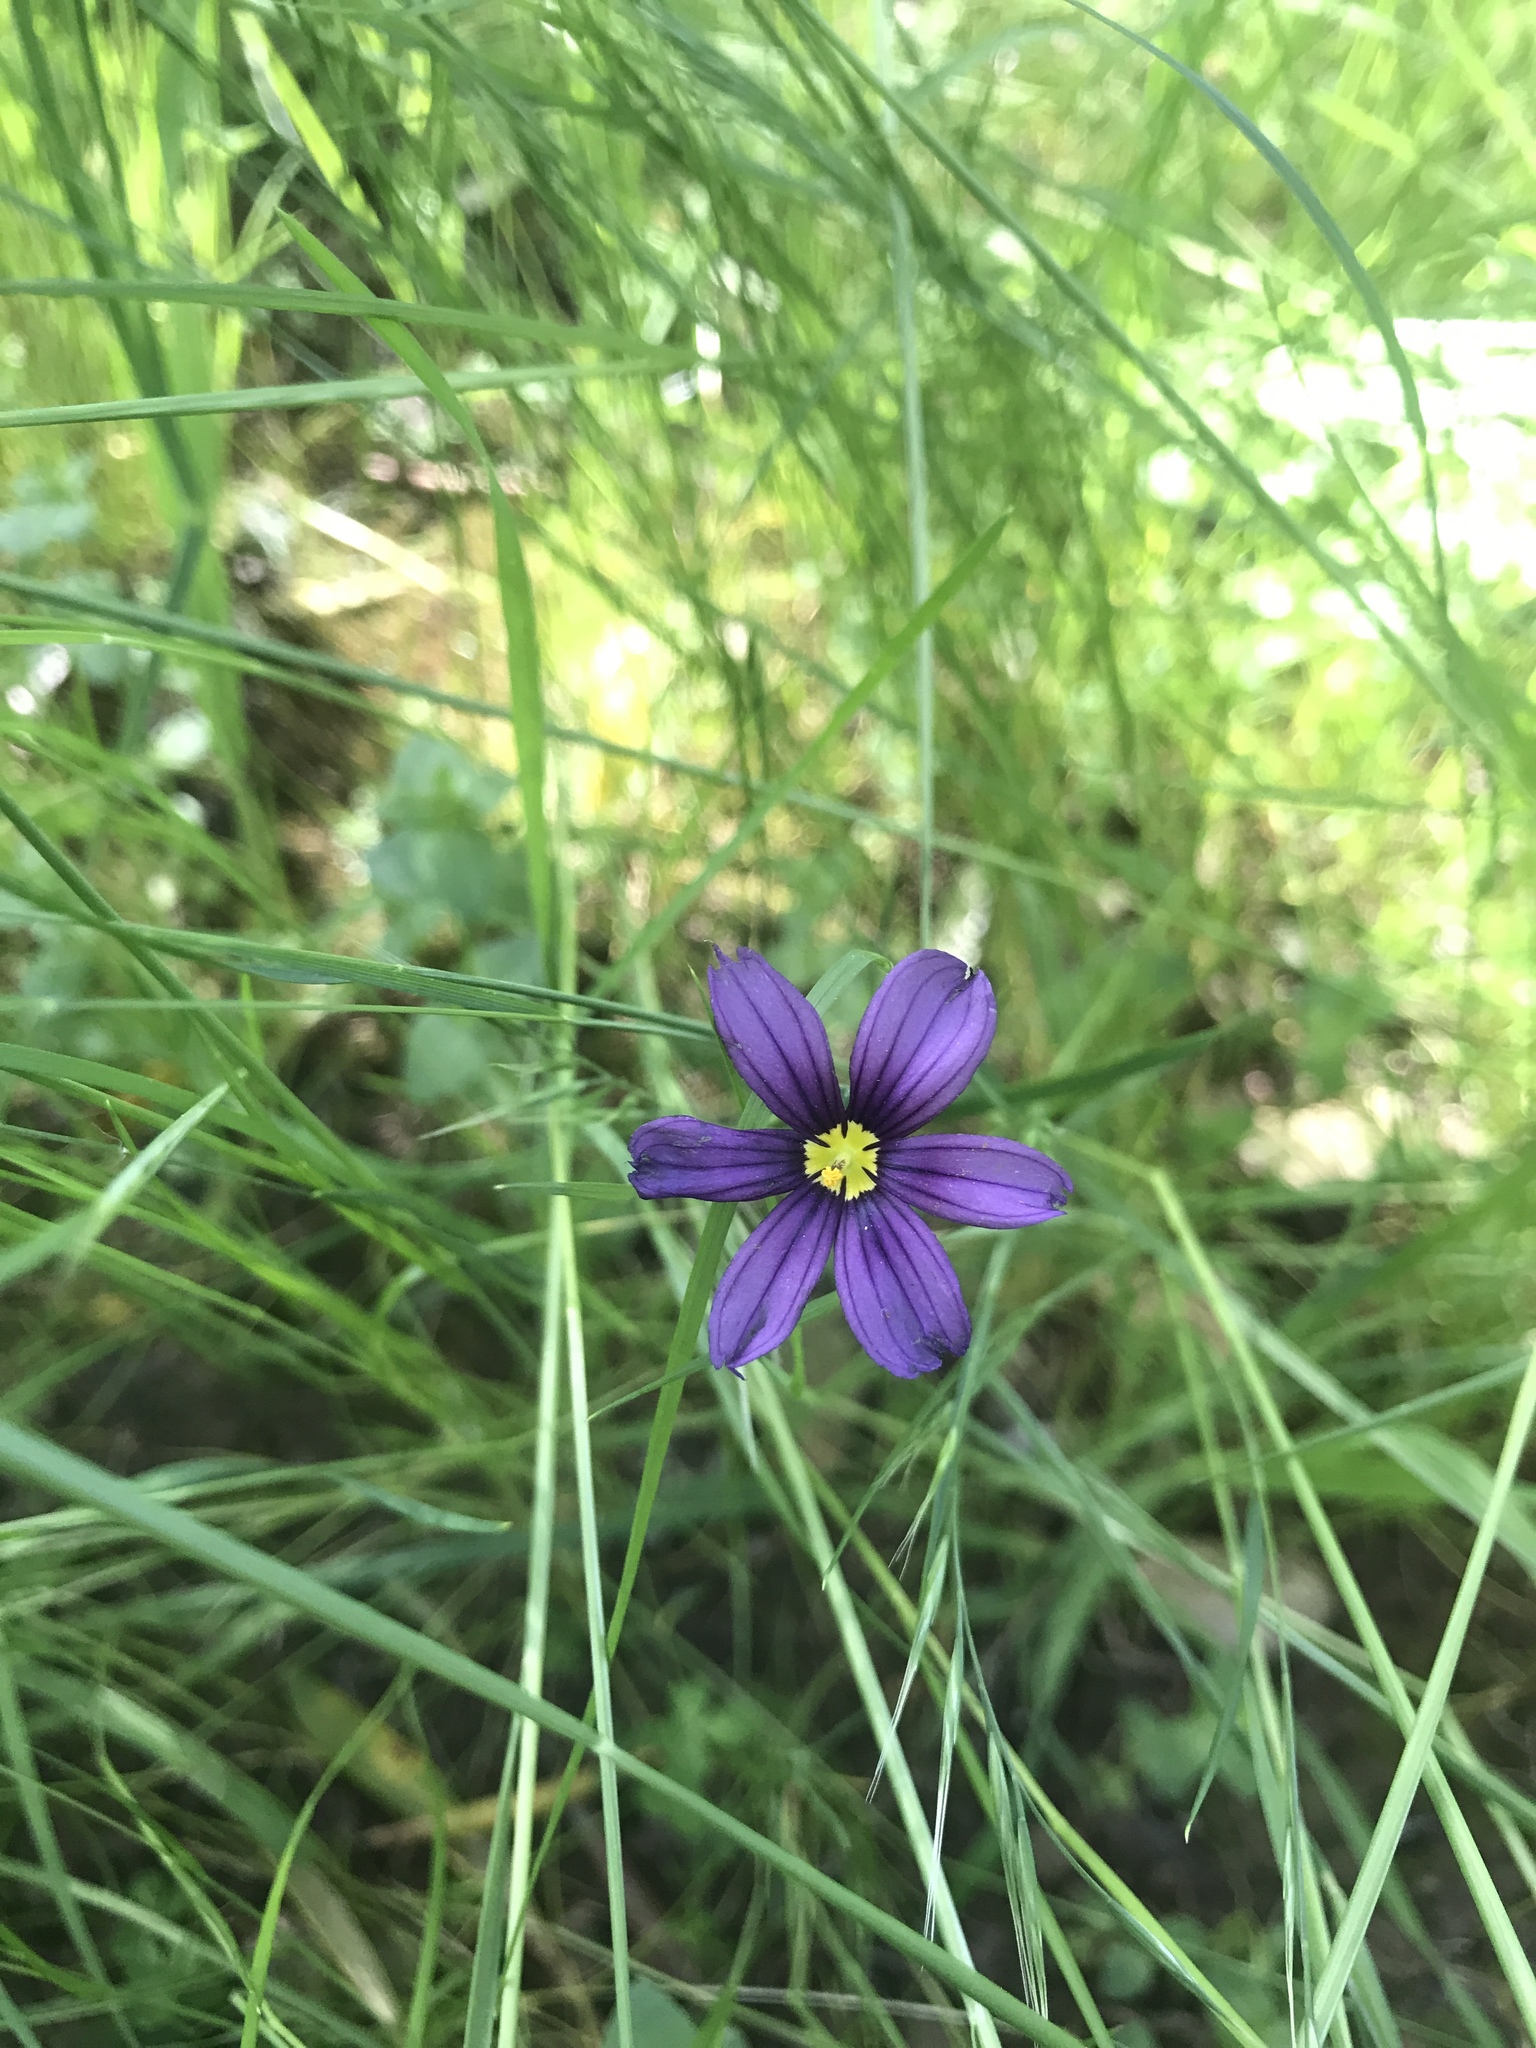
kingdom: Plantae
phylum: Tracheophyta
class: Liliopsida
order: Asparagales
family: Iridaceae
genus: Sisyrinchium
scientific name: Sisyrinchium bellum
